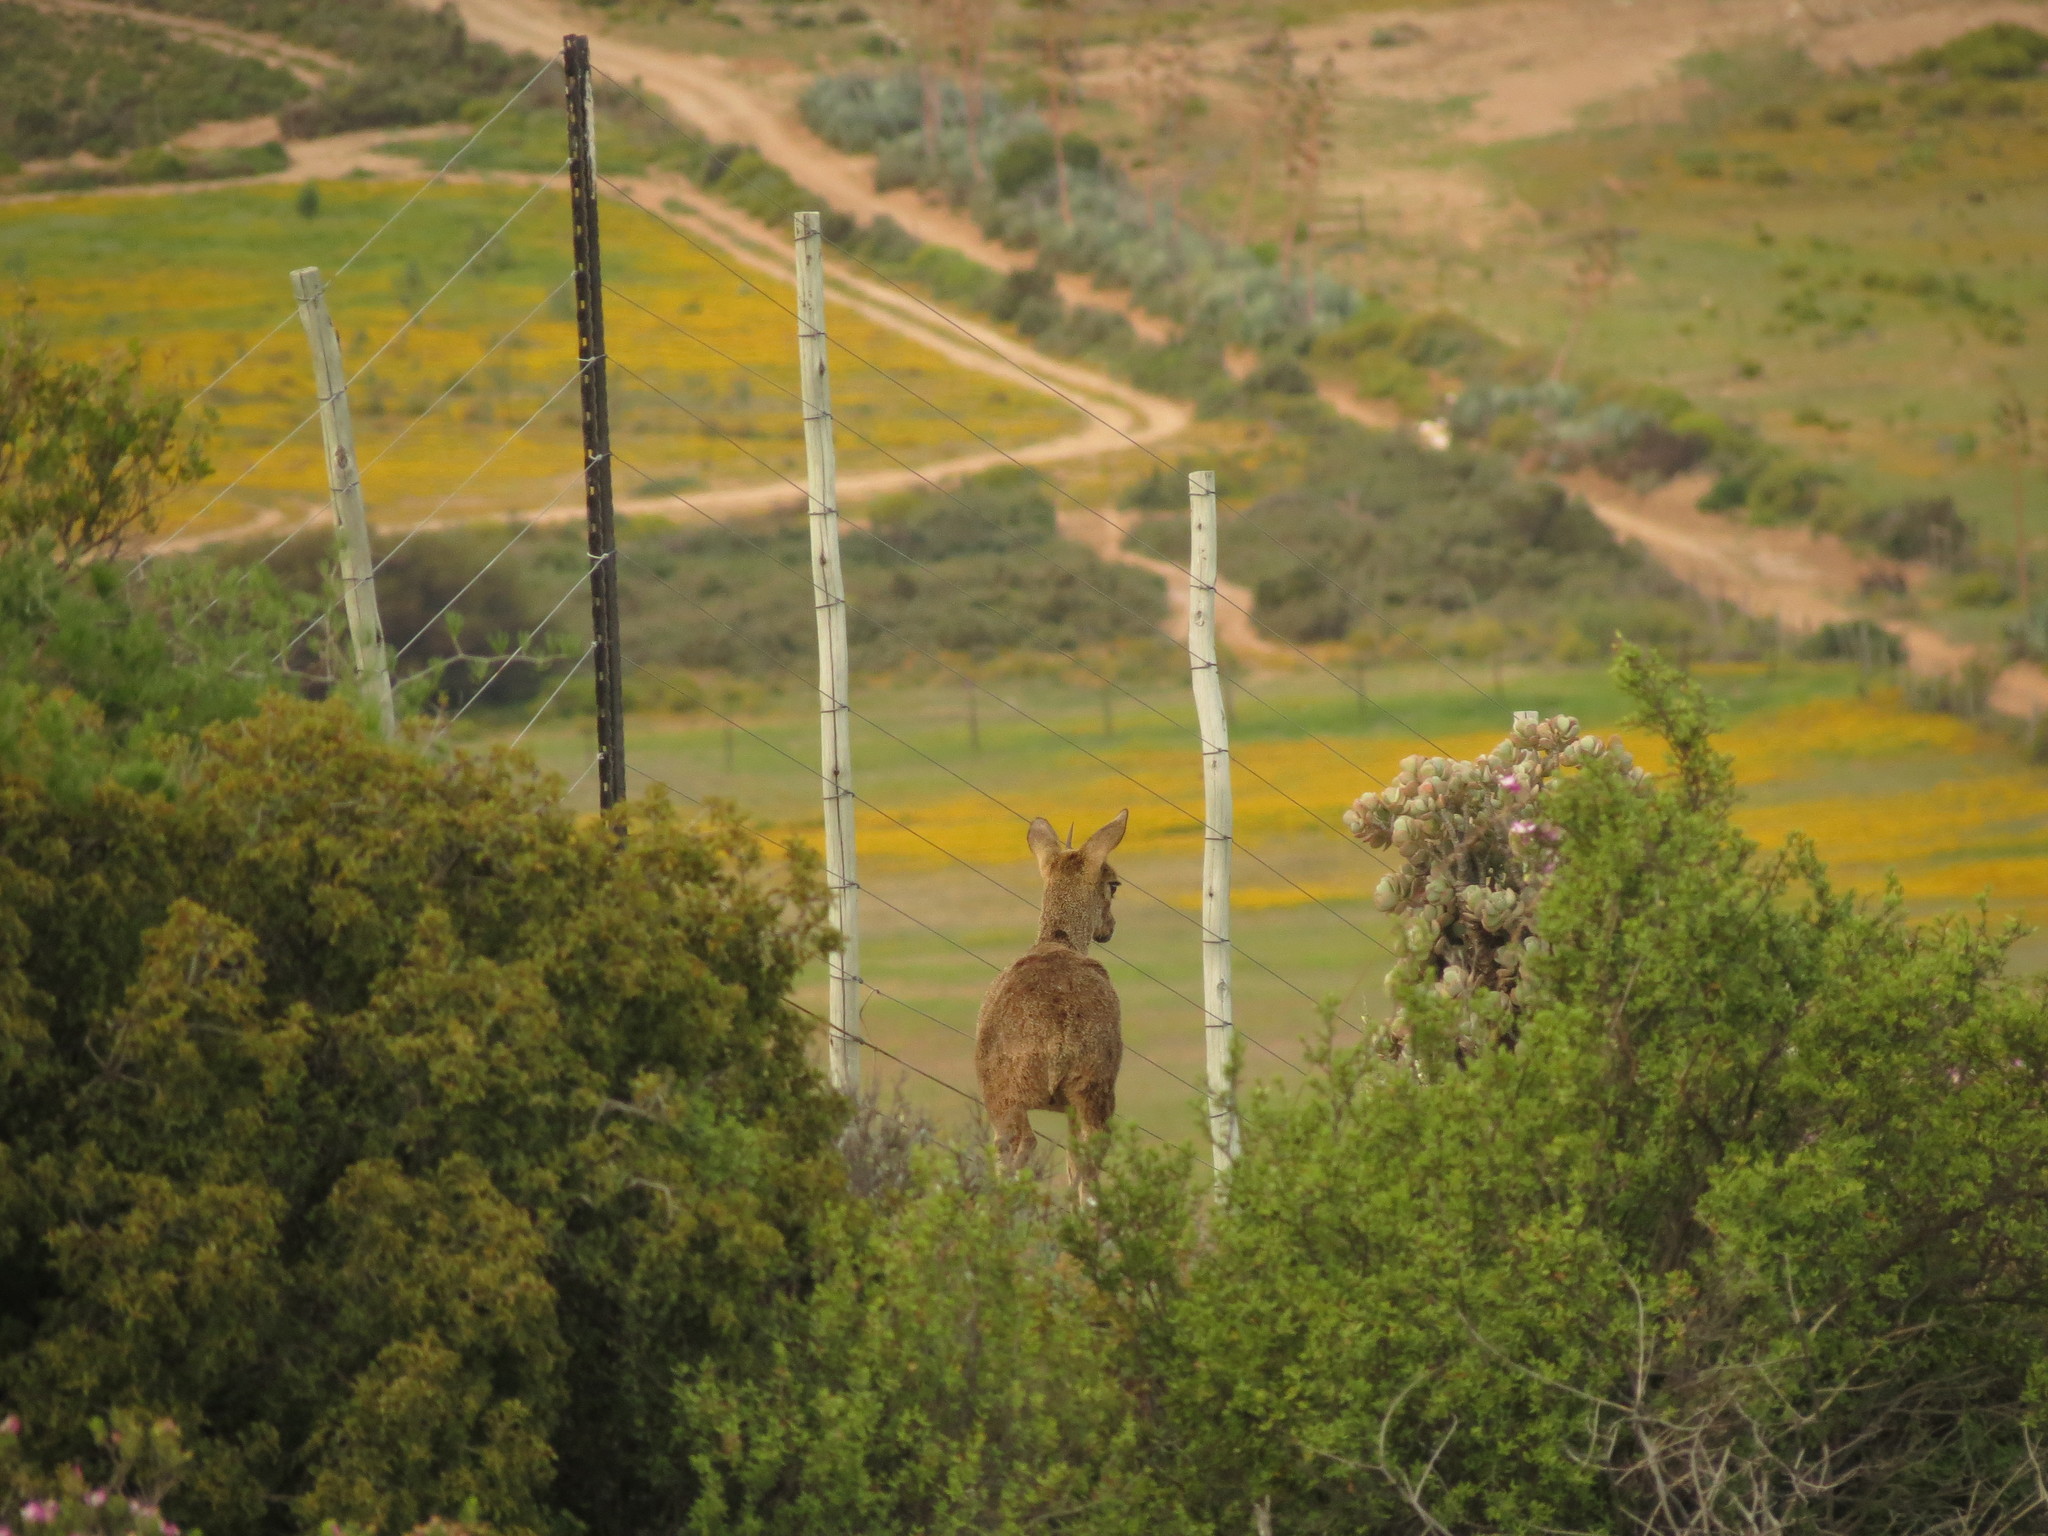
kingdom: Animalia
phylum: Chordata
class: Mammalia
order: Artiodactyla
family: Bovidae
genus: Oreotragus
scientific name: Oreotragus oreotragus
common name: Klipspringer
